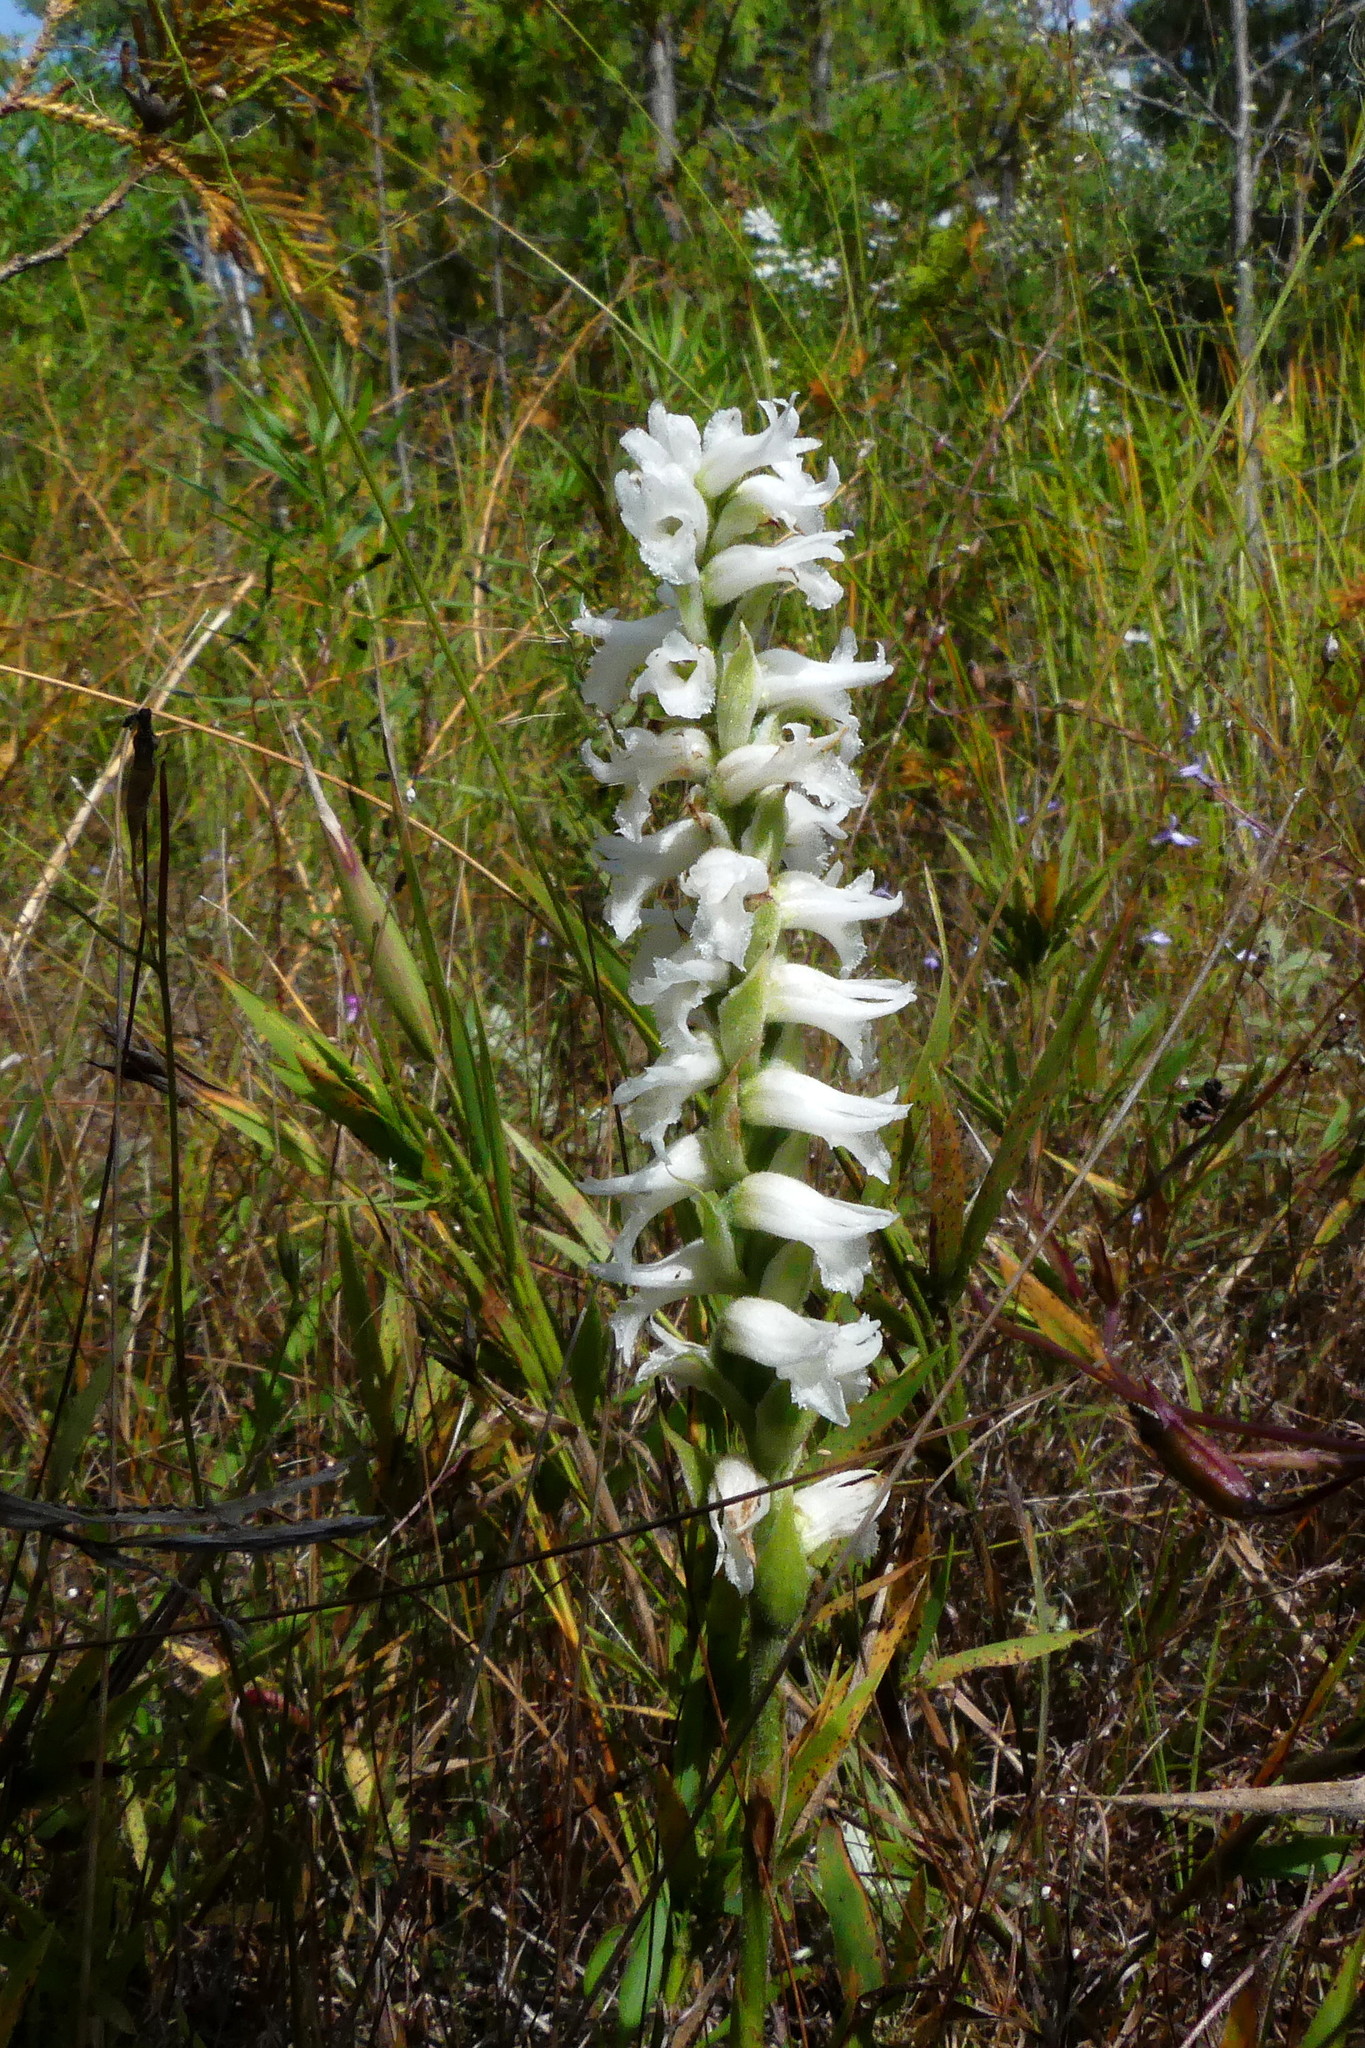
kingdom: Plantae
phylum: Tracheophyta
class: Liliopsida
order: Asparagales
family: Orchidaceae
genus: Spiranthes
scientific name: Spiranthes incurva
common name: Sphinx ladies'-tresses
